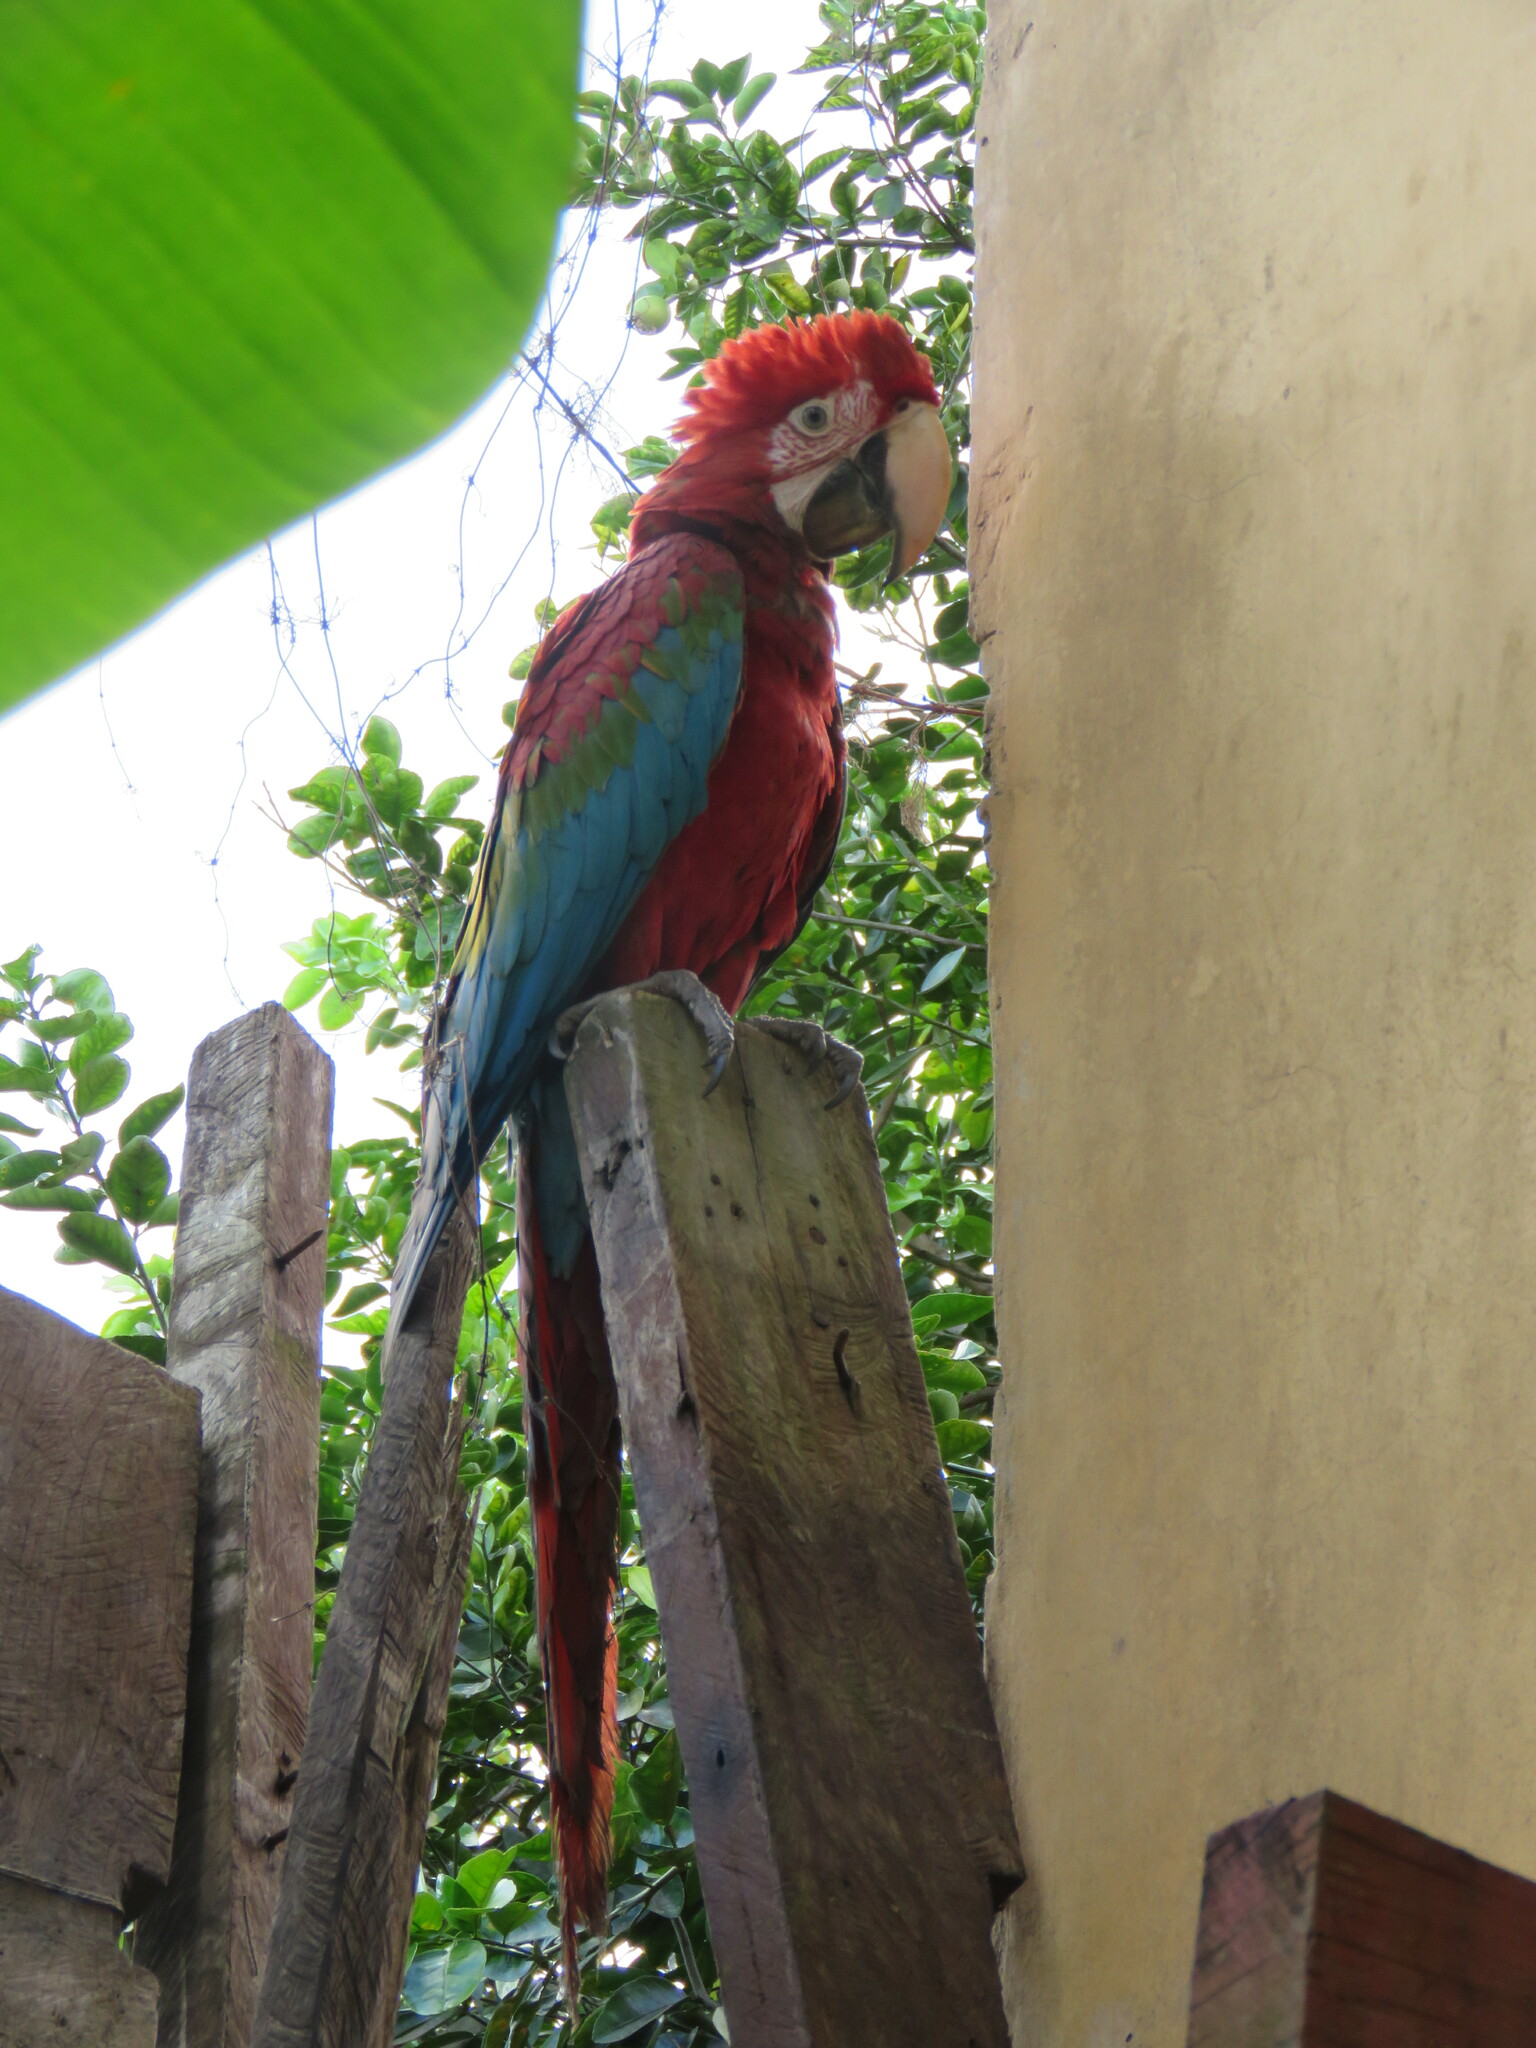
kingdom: Animalia
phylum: Chordata
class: Aves
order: Psittaciformes
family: Psittacidae
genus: Ara
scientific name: Ara chloropterus
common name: Red-and-green macaw
